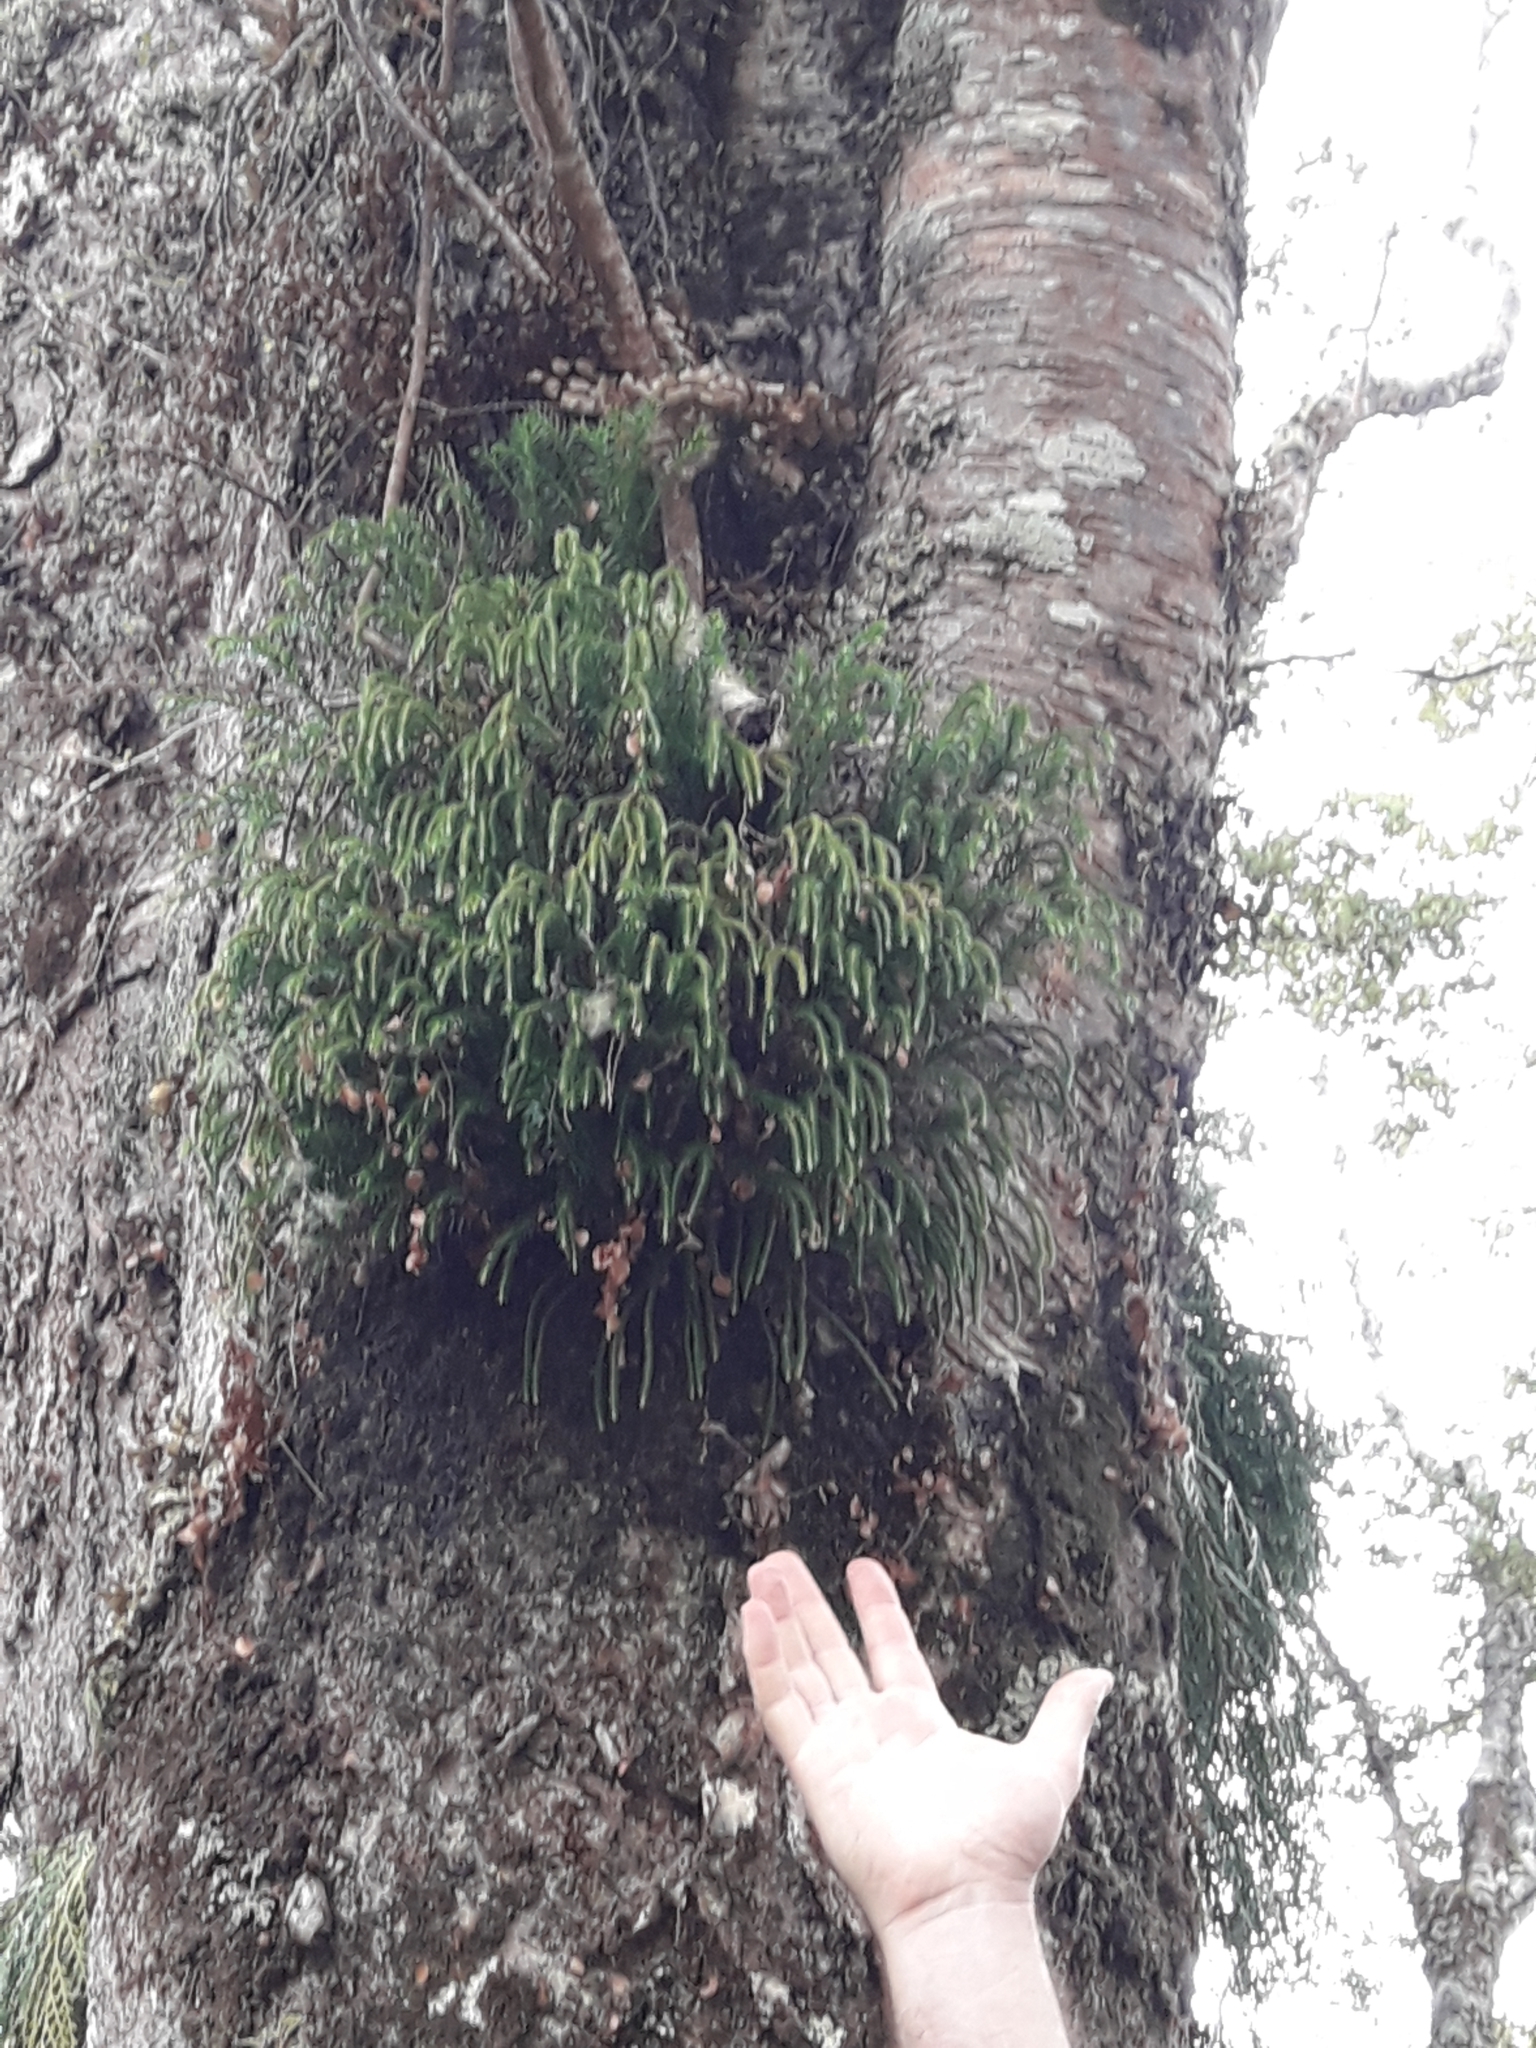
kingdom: Plantae
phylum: Tracheophyta
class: Lycopodiopsida
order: Lycopodiales
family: Lycopodiaceae
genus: Phlegmariurus
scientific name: Phlegmariurus varius
